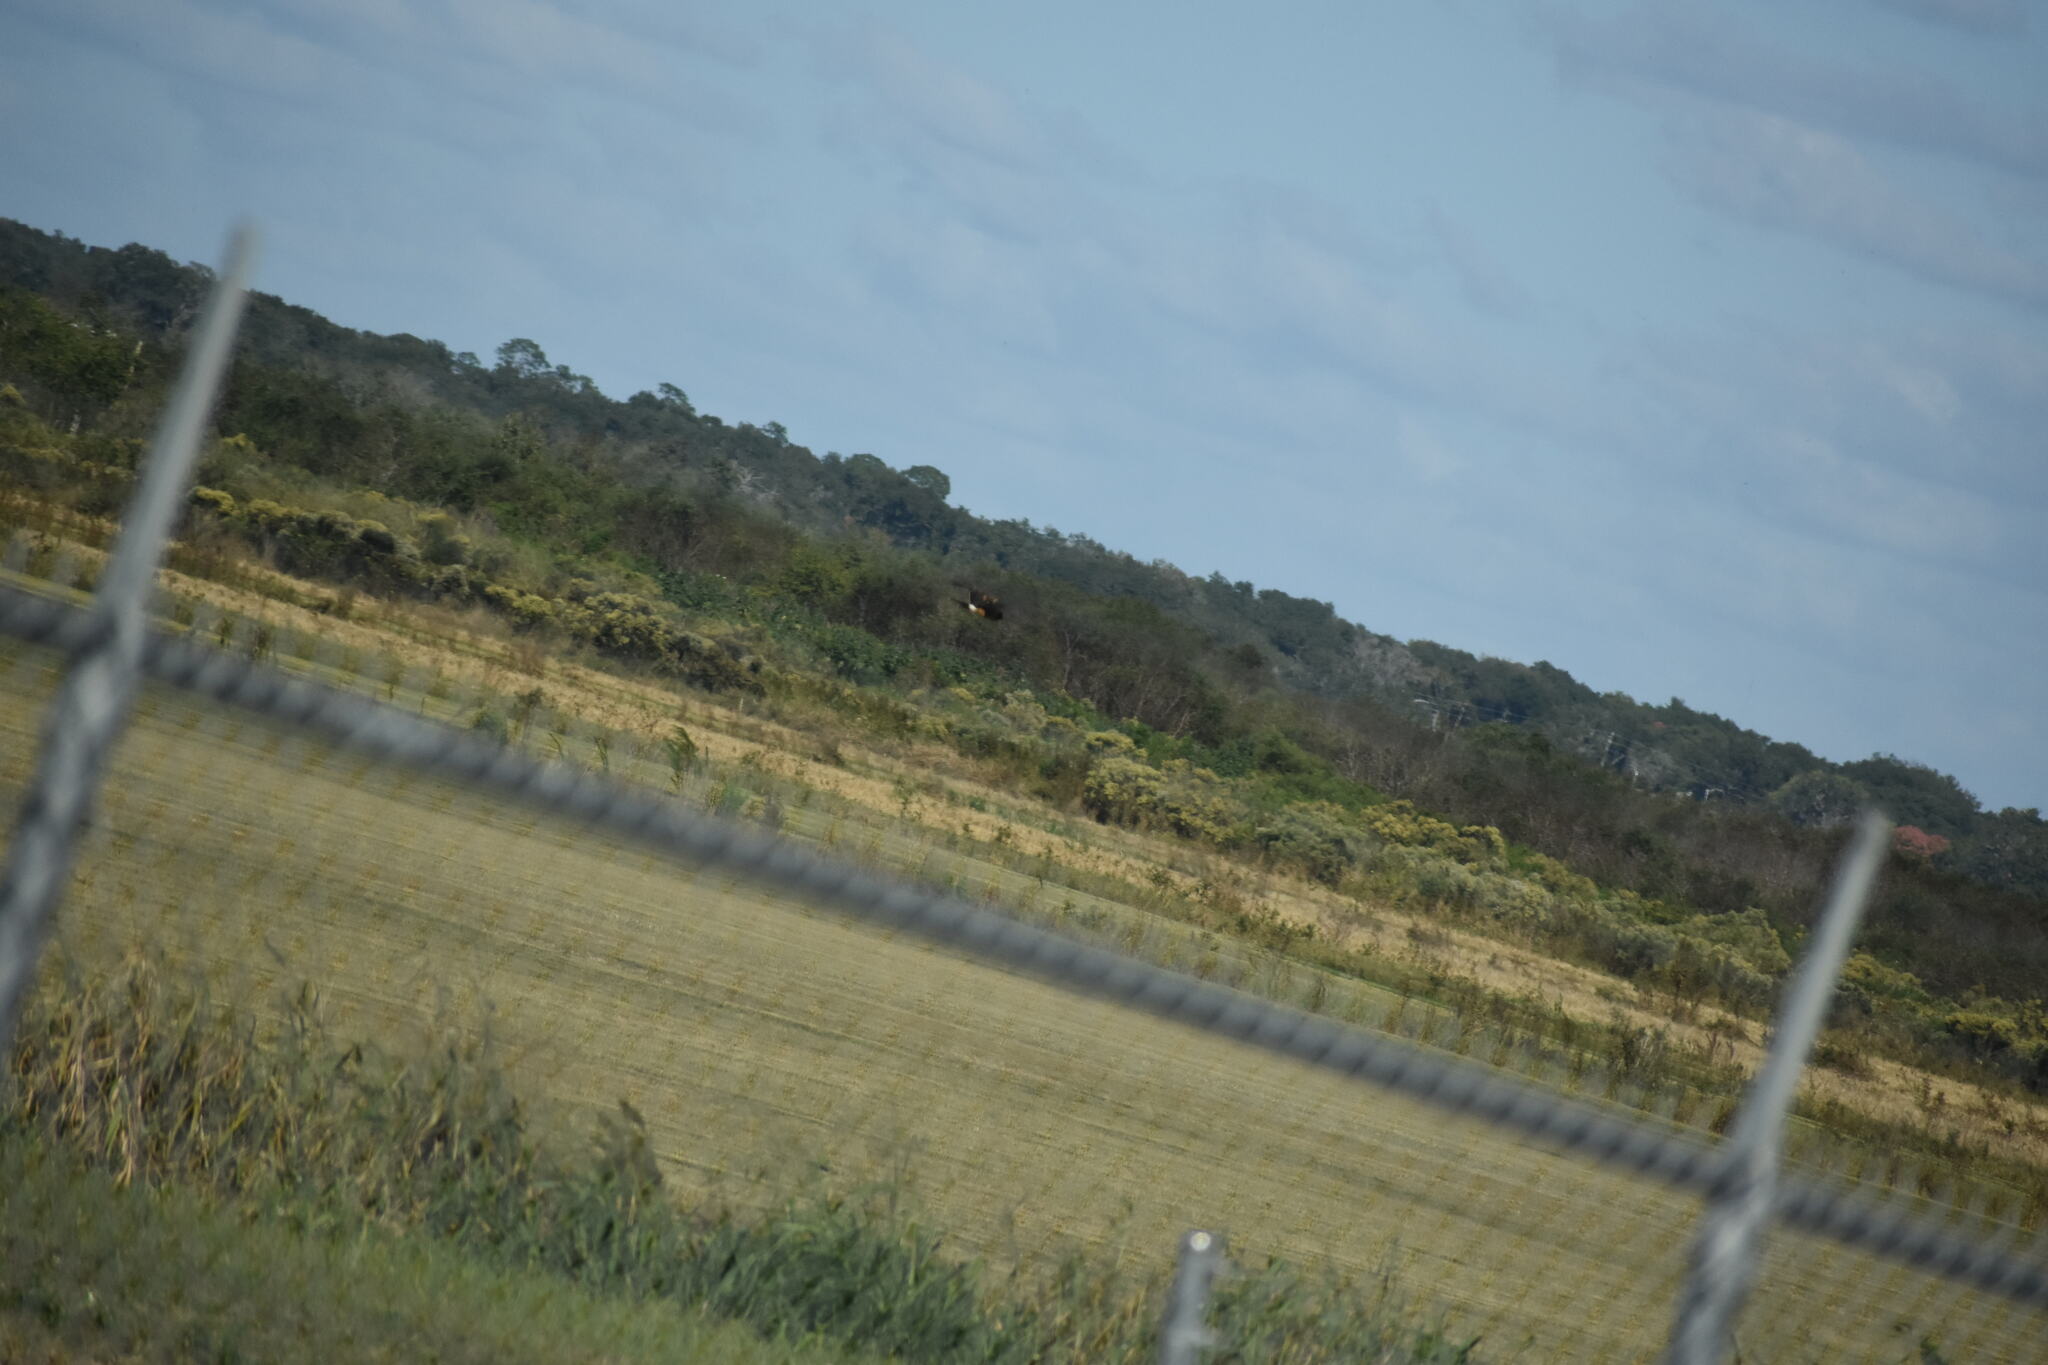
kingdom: Animalia
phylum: Chordata
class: Aves
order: Accipitriformes
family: Accipitridae
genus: Circus
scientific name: Circus cyaneus
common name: Hen harrier
